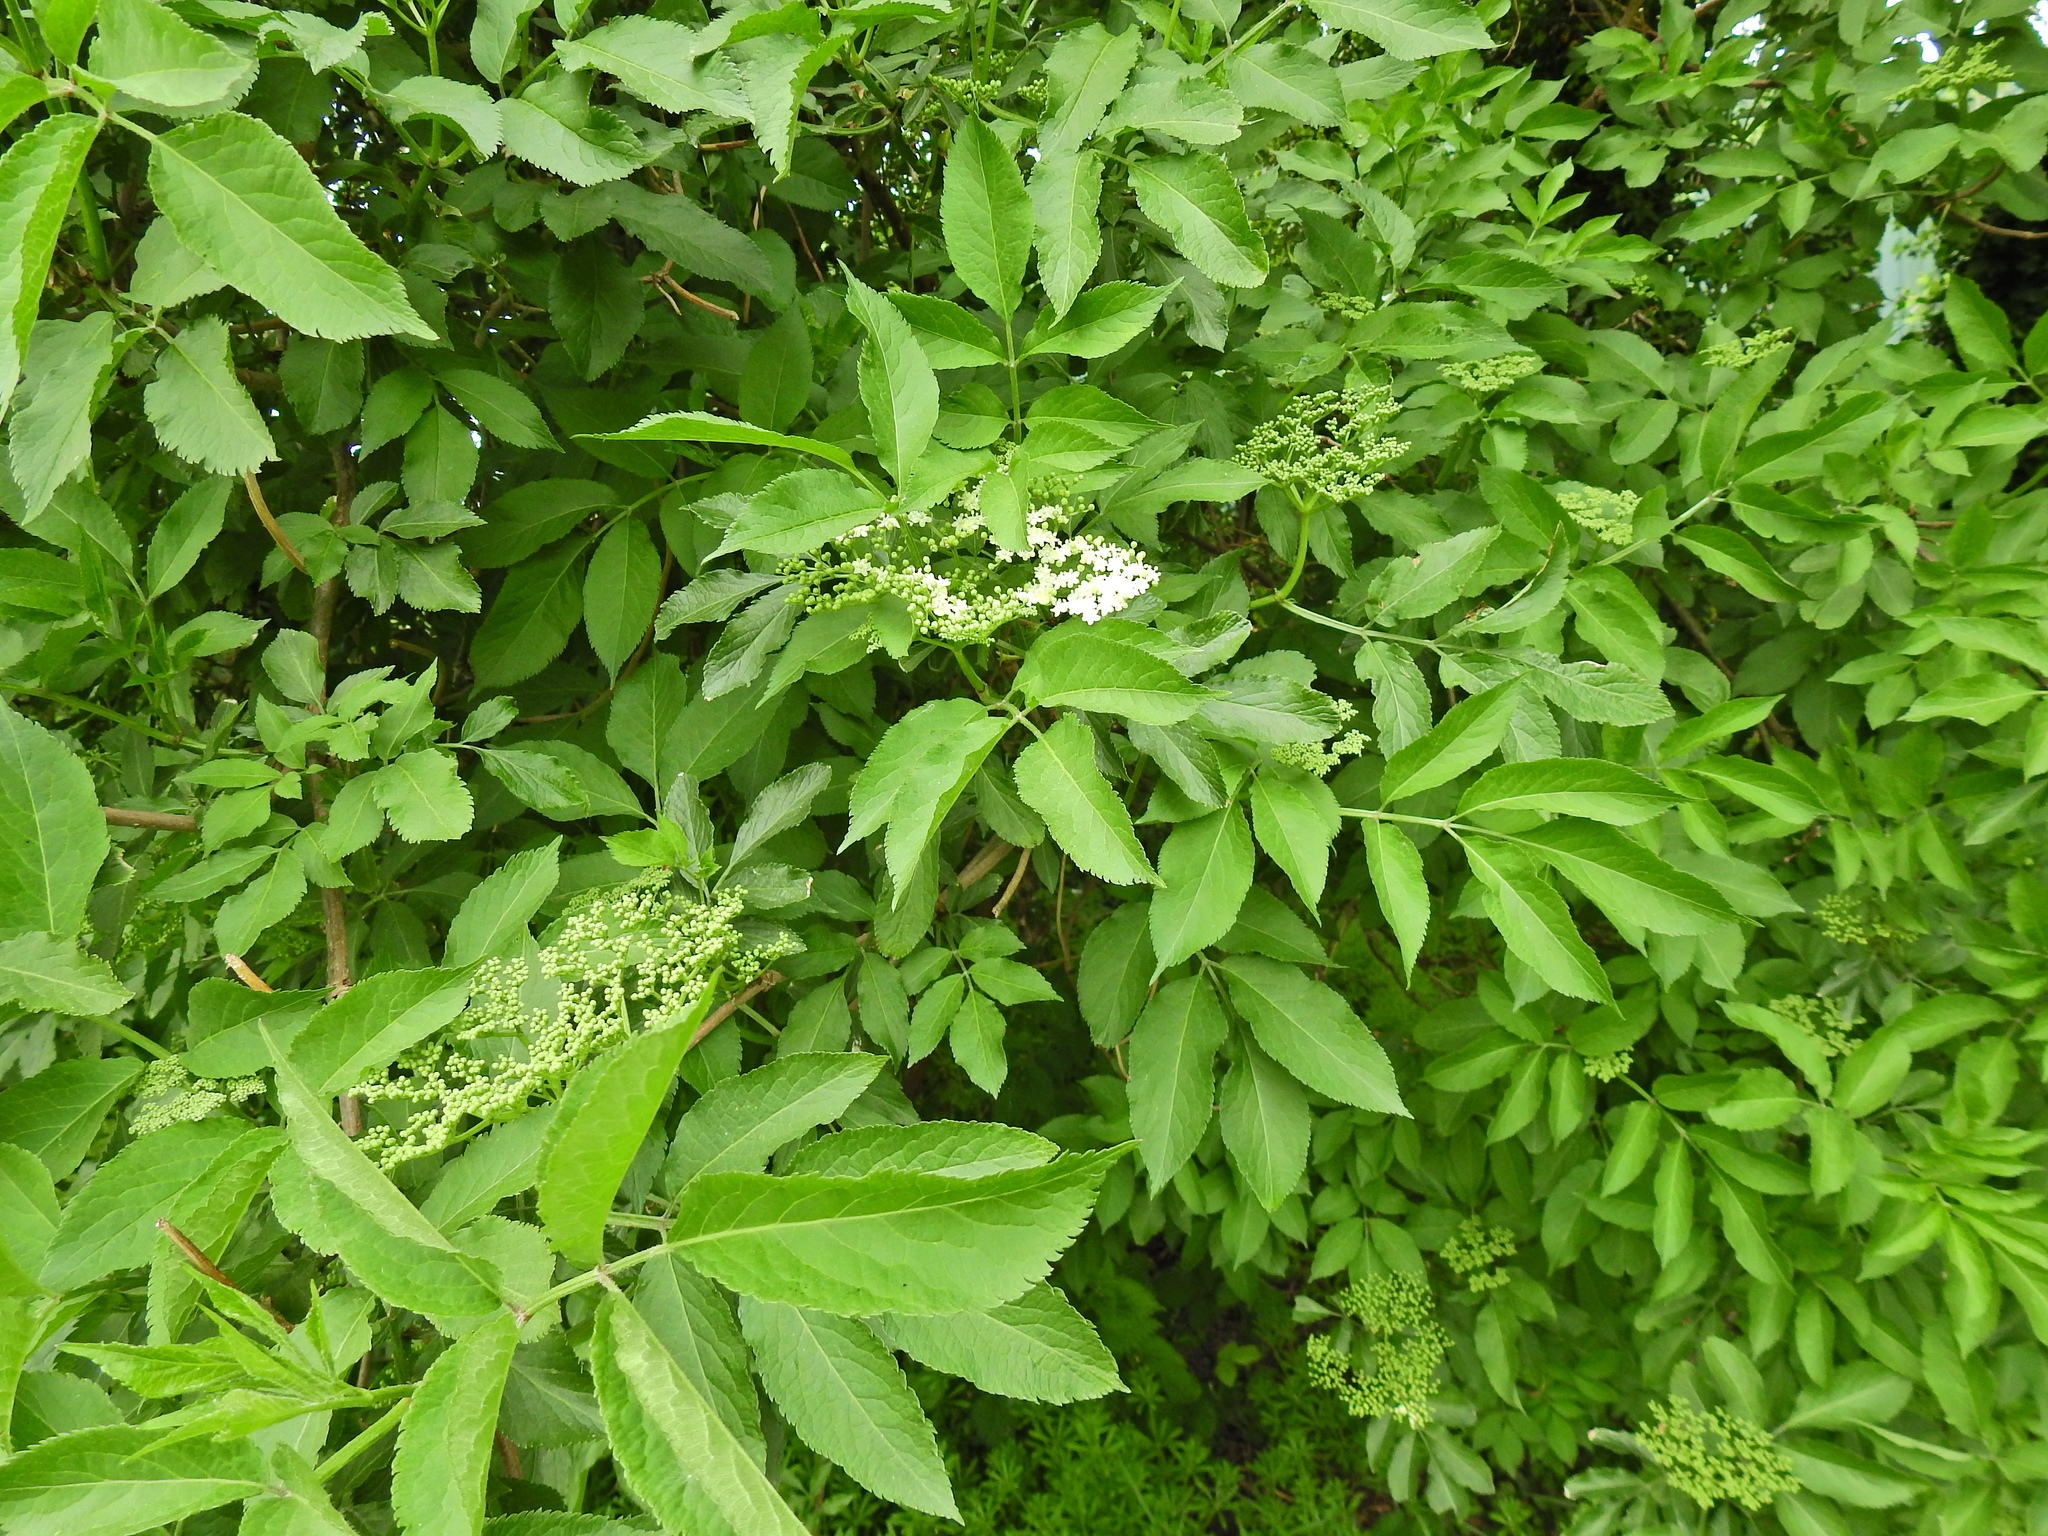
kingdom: Plantae
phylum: Tracheophyta
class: Magnoliopsida
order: Dipsacales
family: Viburnaceae
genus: Sambucus
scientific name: Sambucus nigra
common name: Elder
